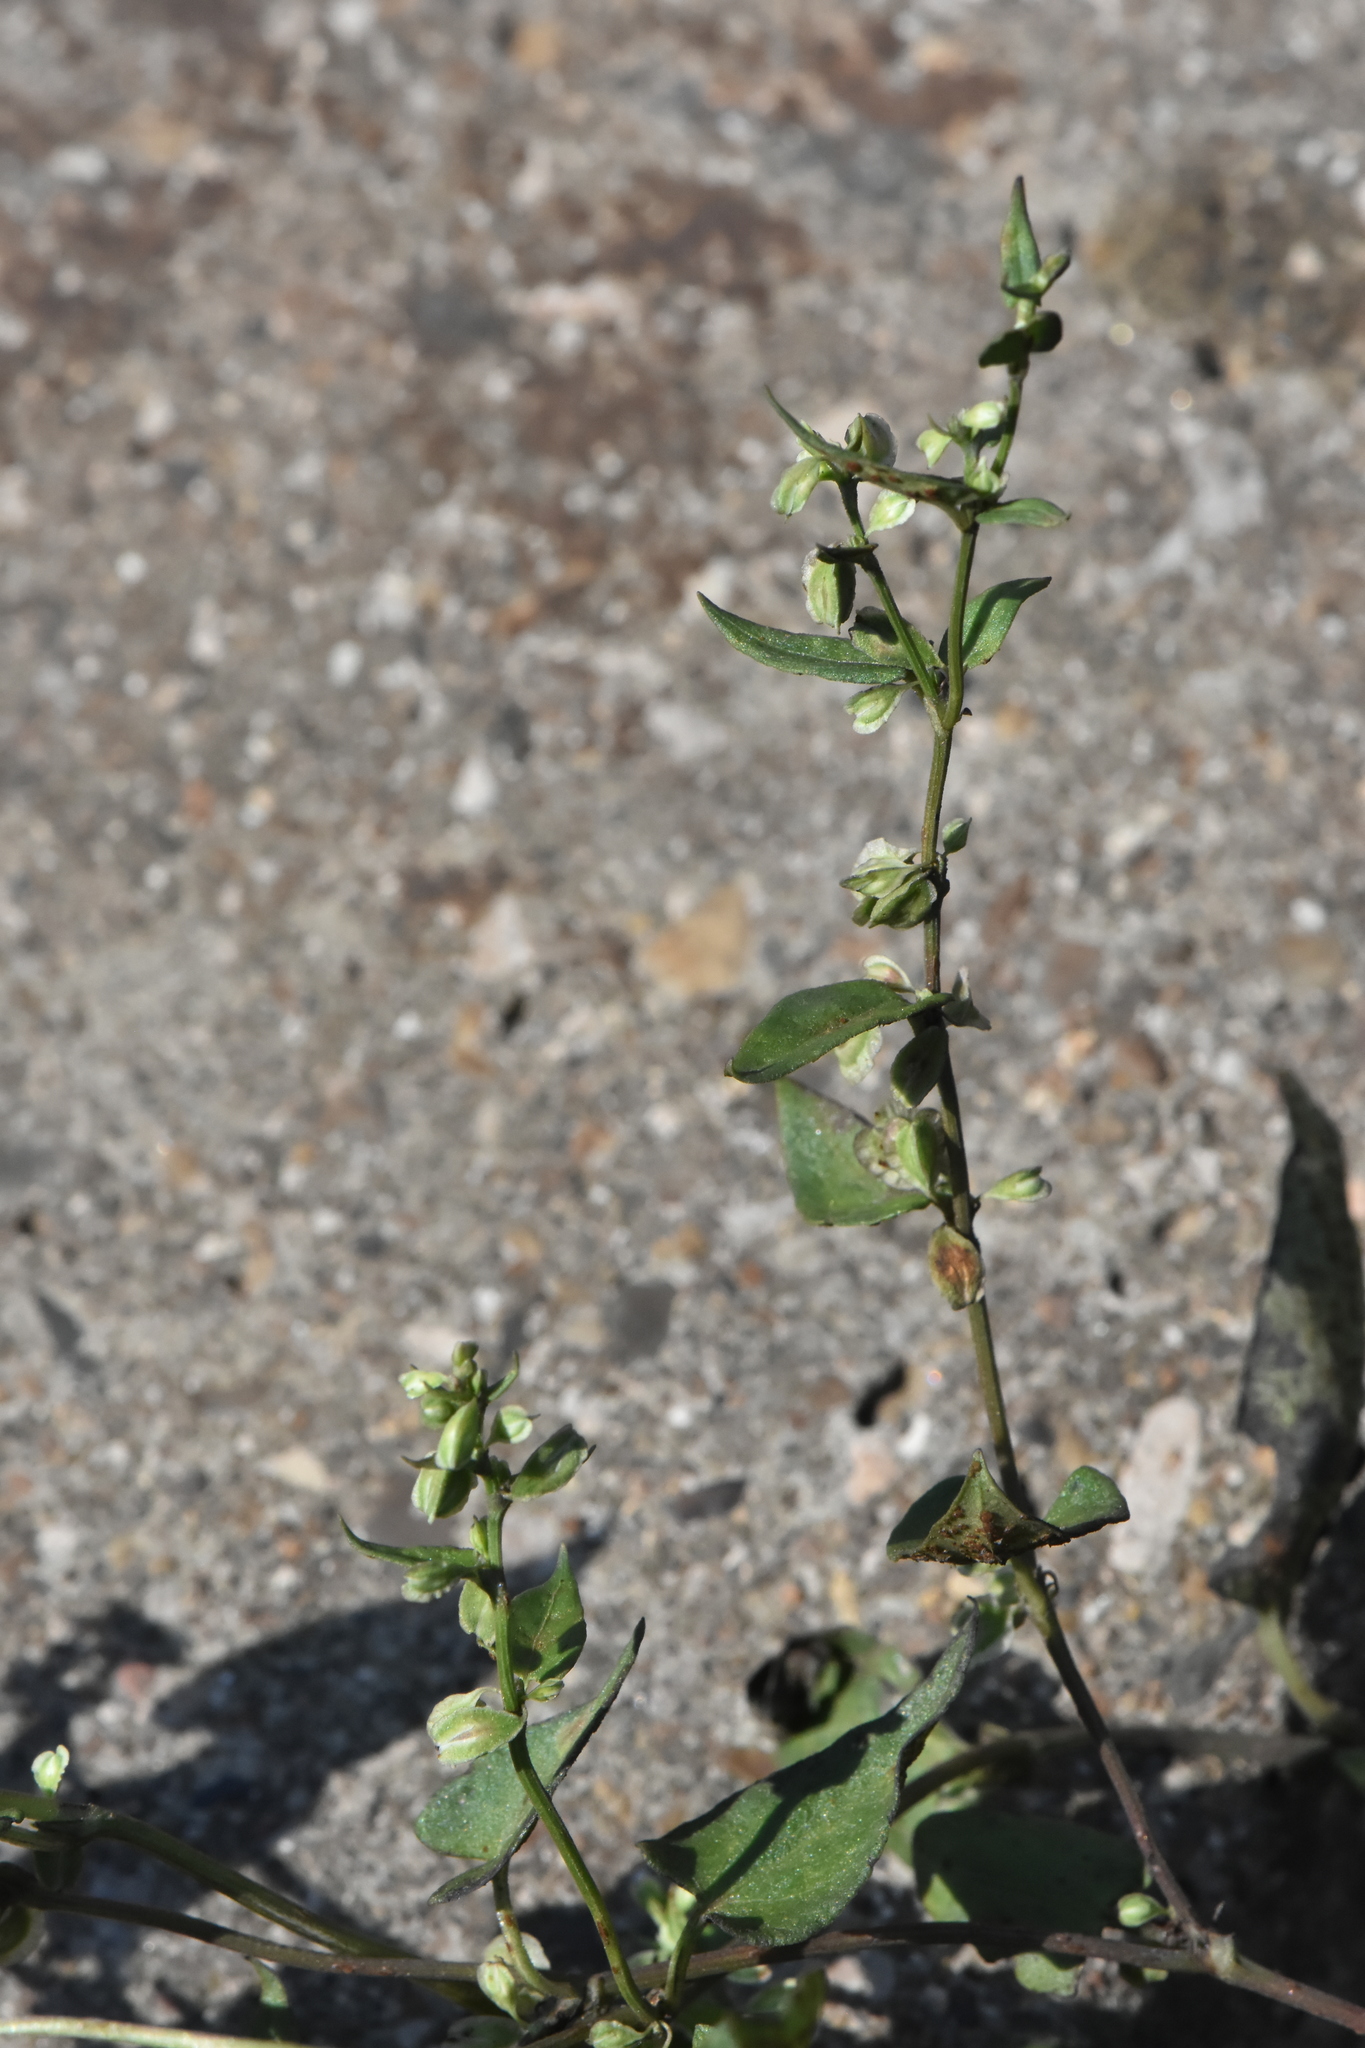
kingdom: Plantae
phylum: Tracheophyta
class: Magnoliopsida
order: Caryophyllales
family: Polygonaceae
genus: Fallopia
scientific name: Fallopia dumetorum
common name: Copse-bindweed
